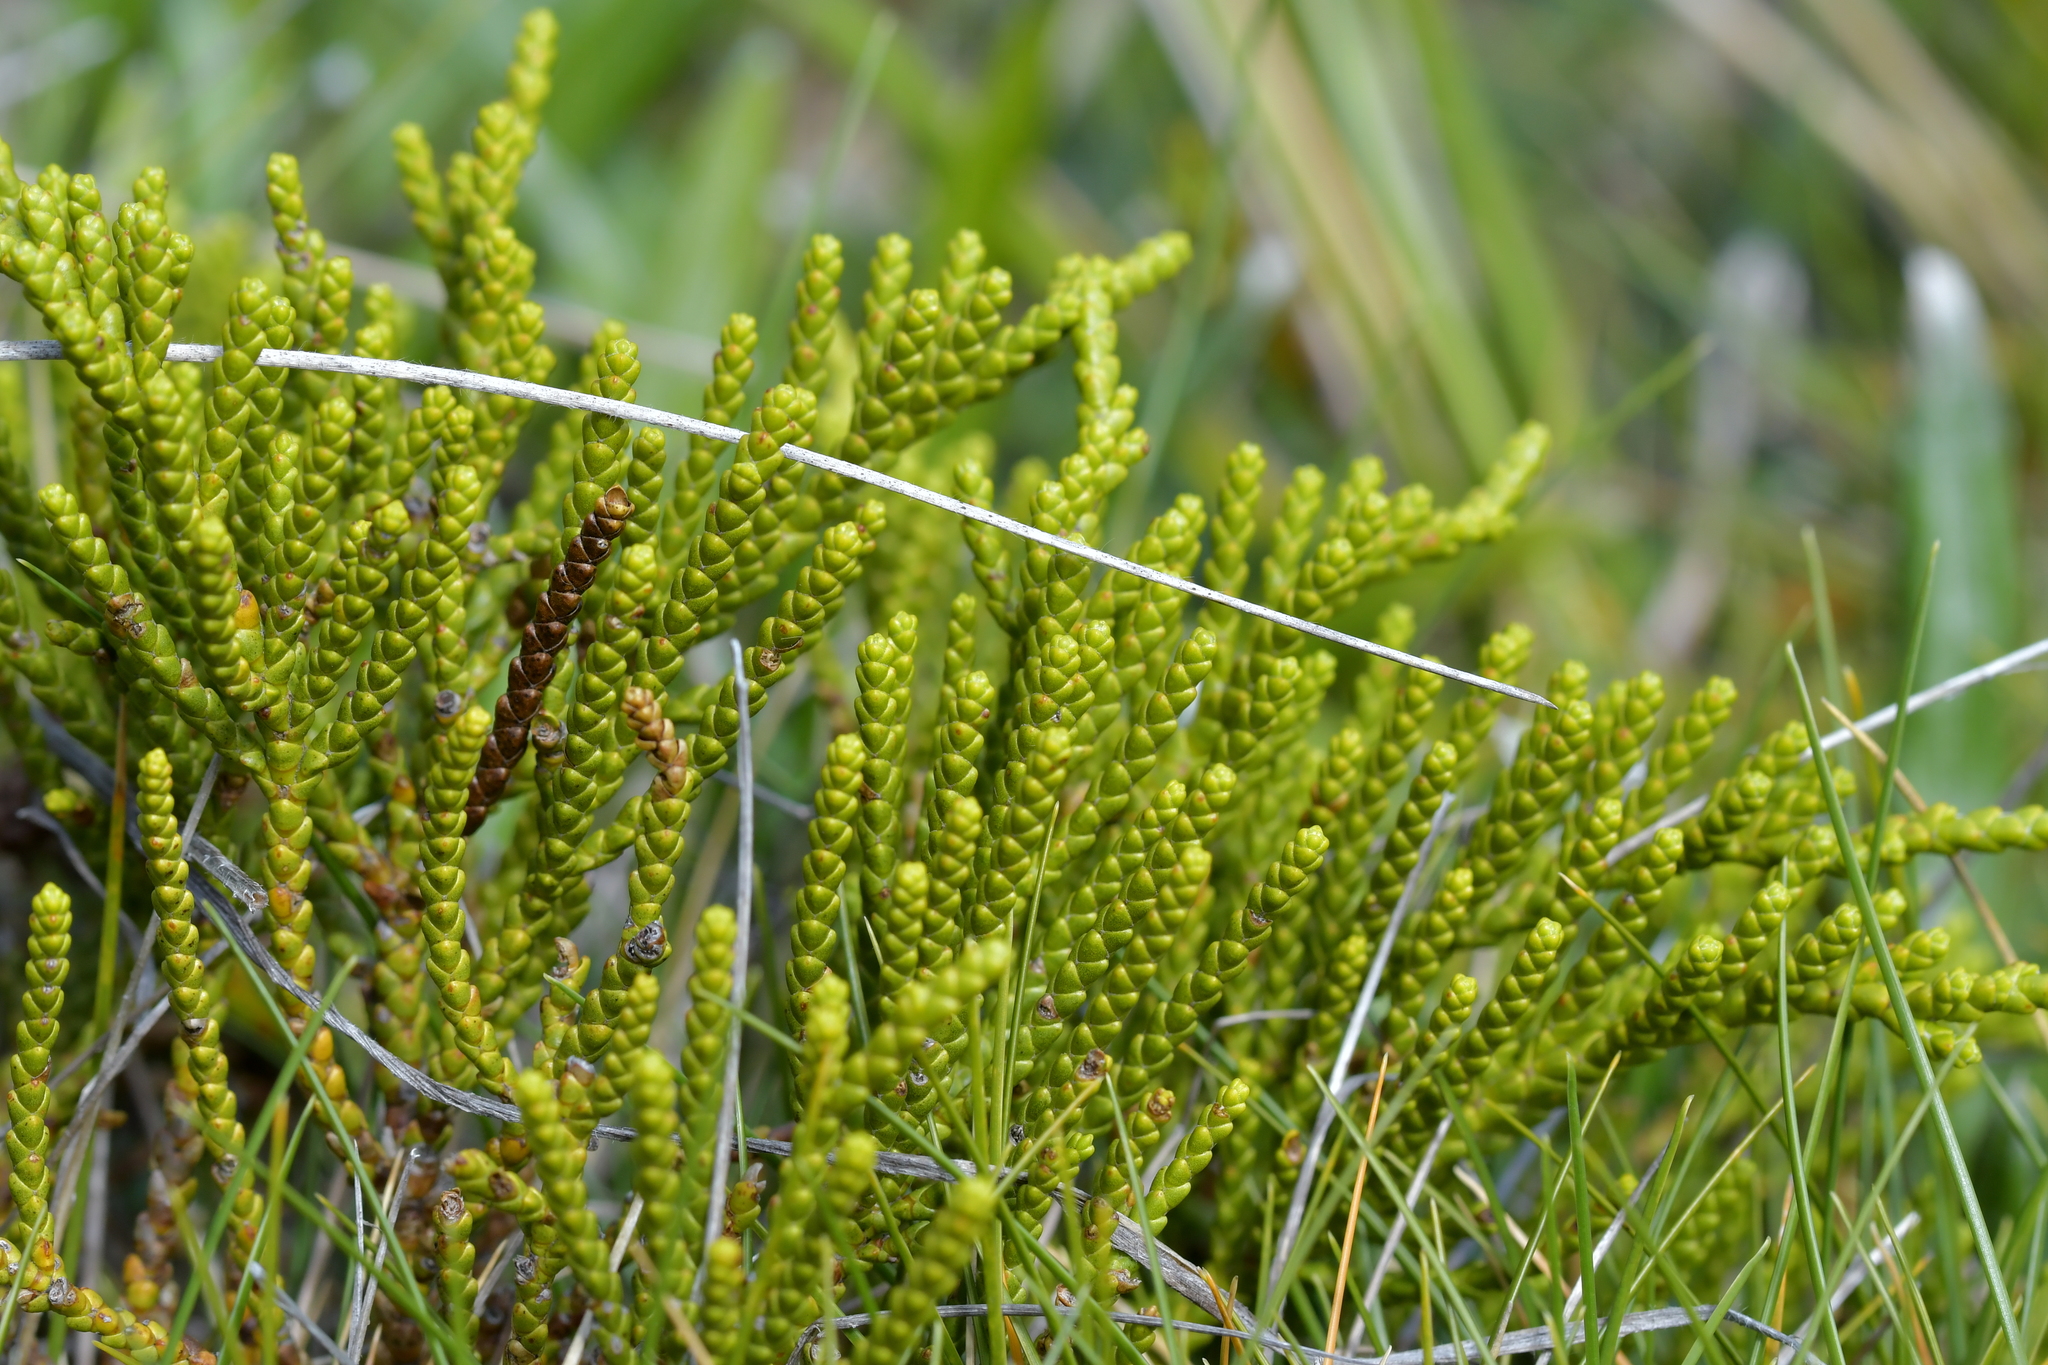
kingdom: Plantae
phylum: Tracheophyta
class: Magnoliopsida
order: Lamiales
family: Plantaginaceae
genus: Veronica
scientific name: Veronica hectorii
